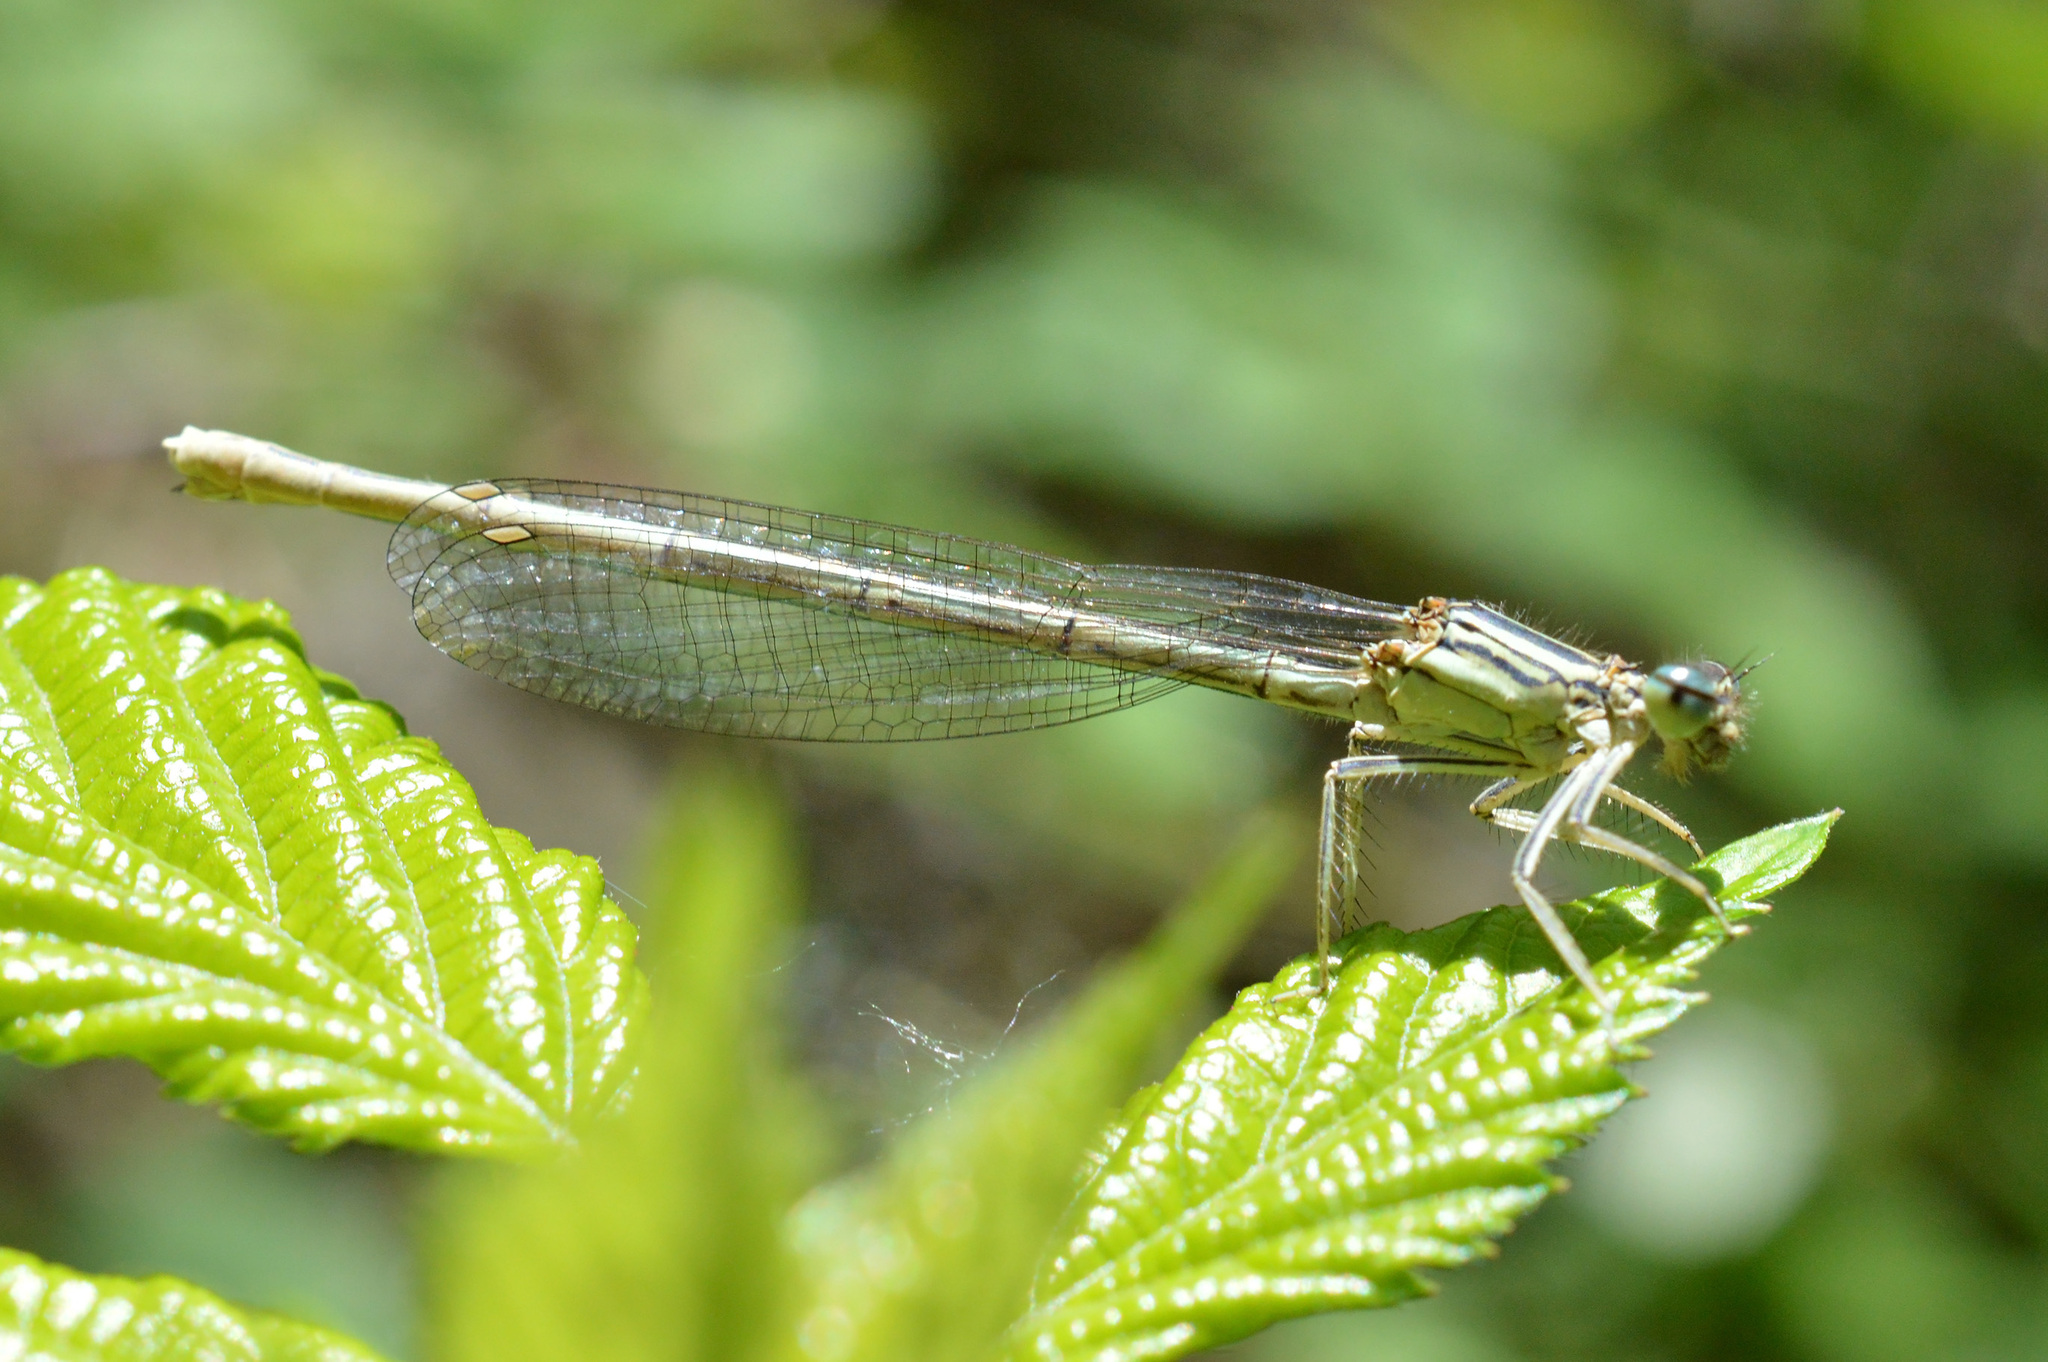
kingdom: Animalia
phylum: Arthropoda
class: Insecta
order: Odonata
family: Platycnemididae
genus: Platycnemis
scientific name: Platycnemis pennipes
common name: White-legged damselfly
